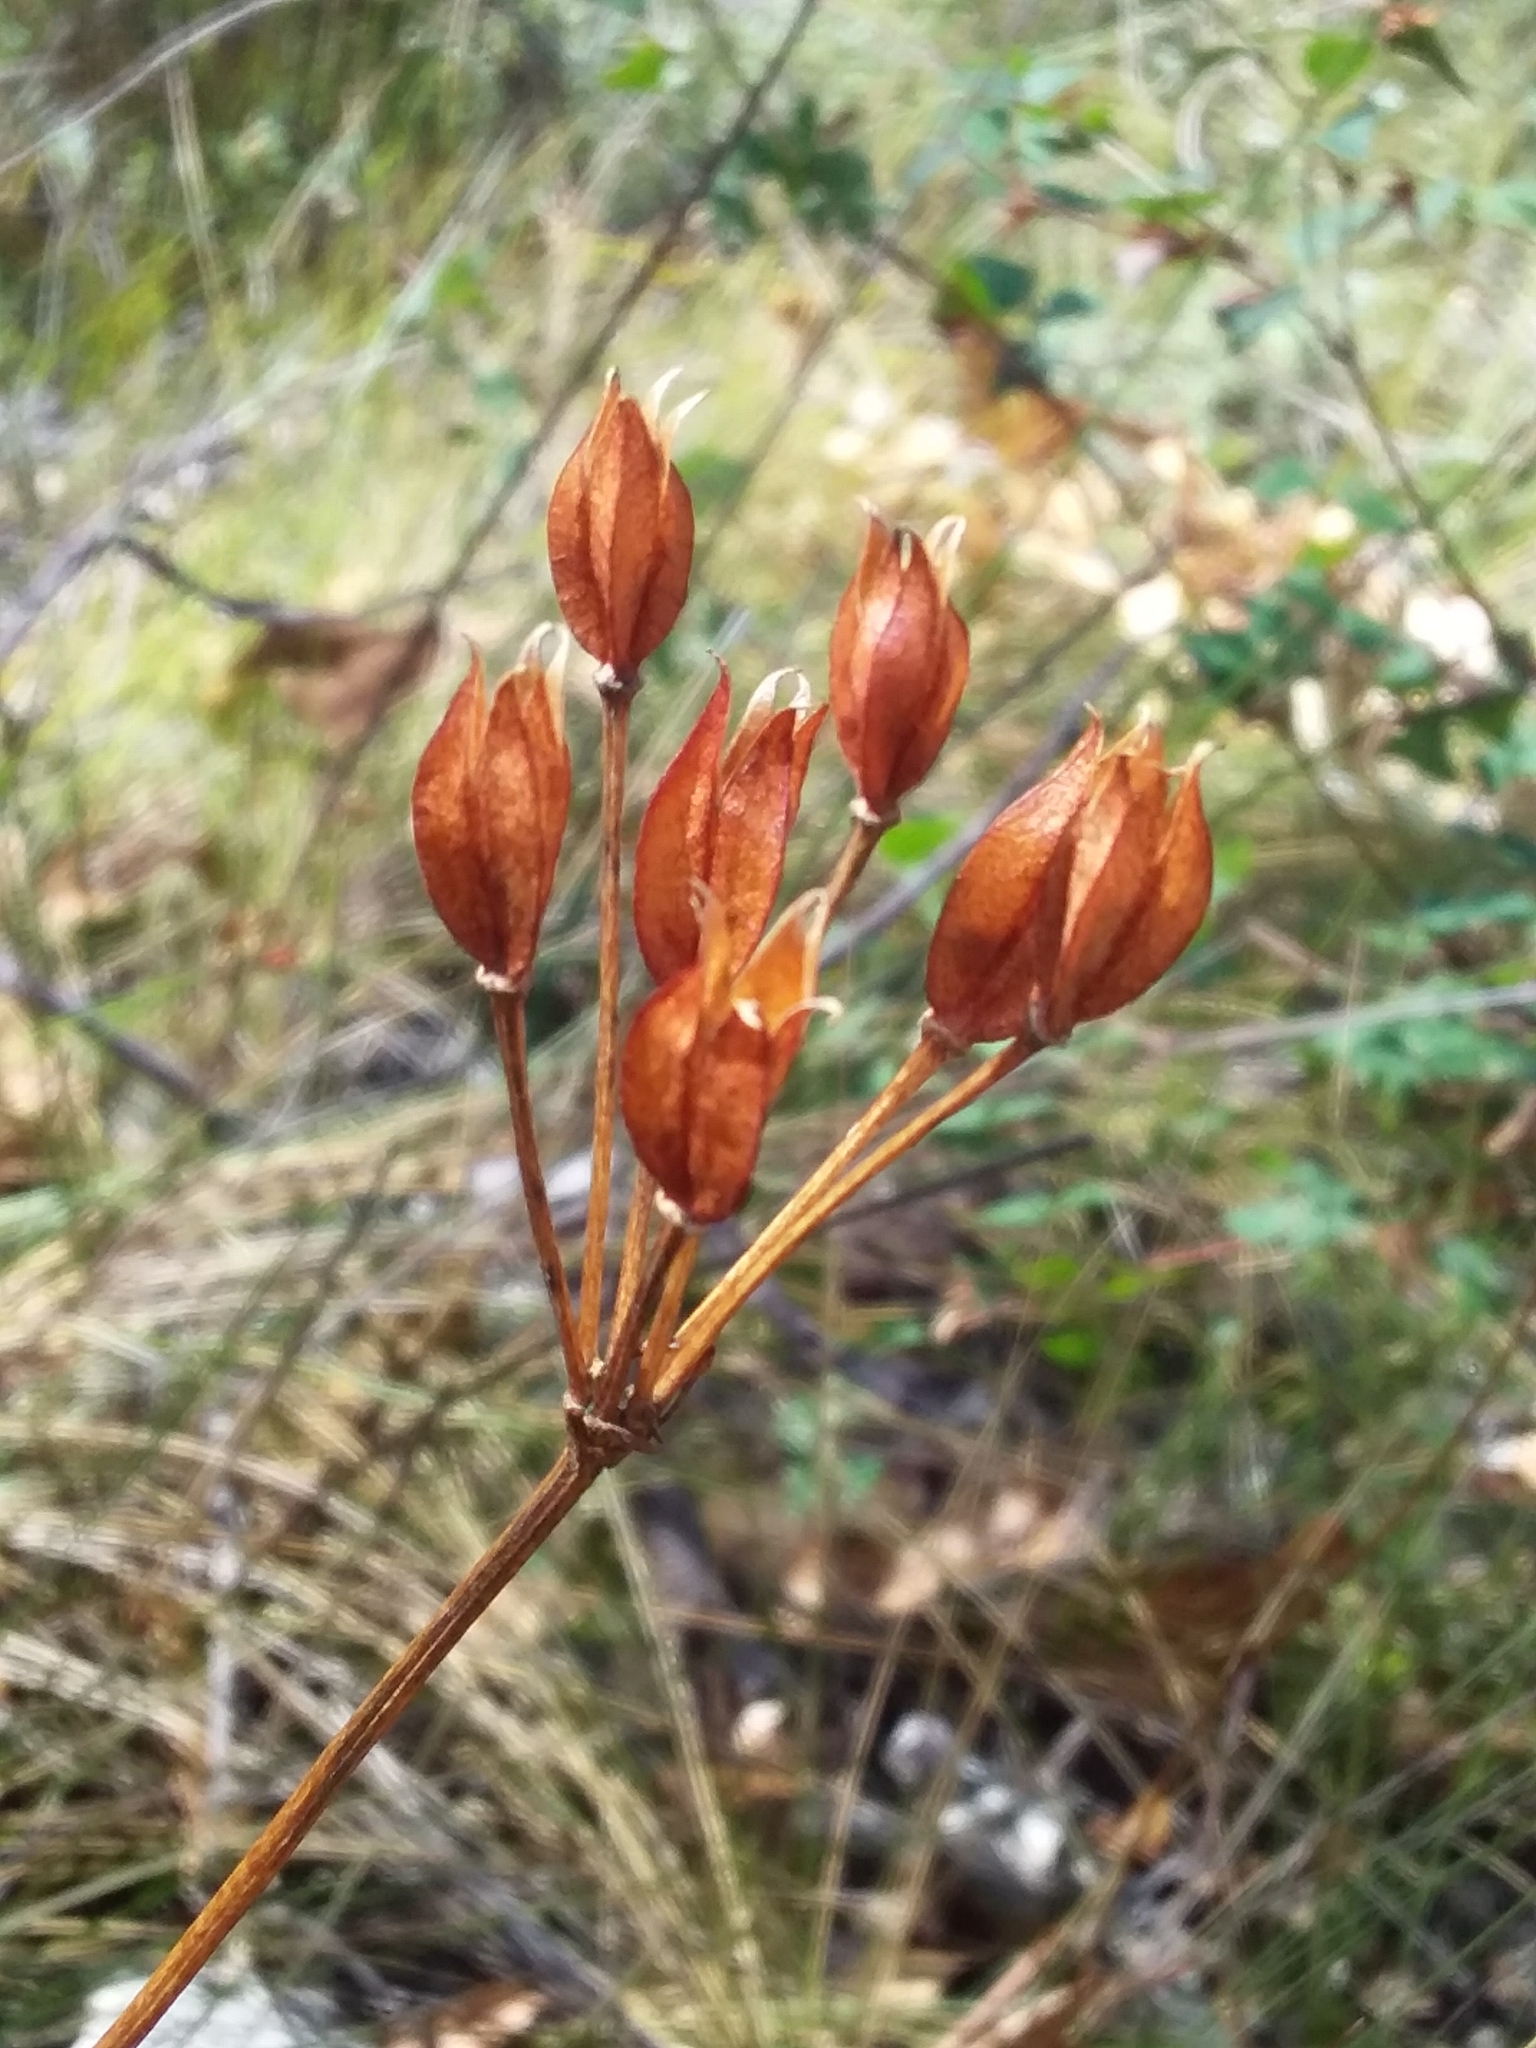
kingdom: Plantae
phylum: Tracheophyta
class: Liliopsida
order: Liliales
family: Colchicaceae
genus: Burchardia
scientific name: Burchardia umbellata
